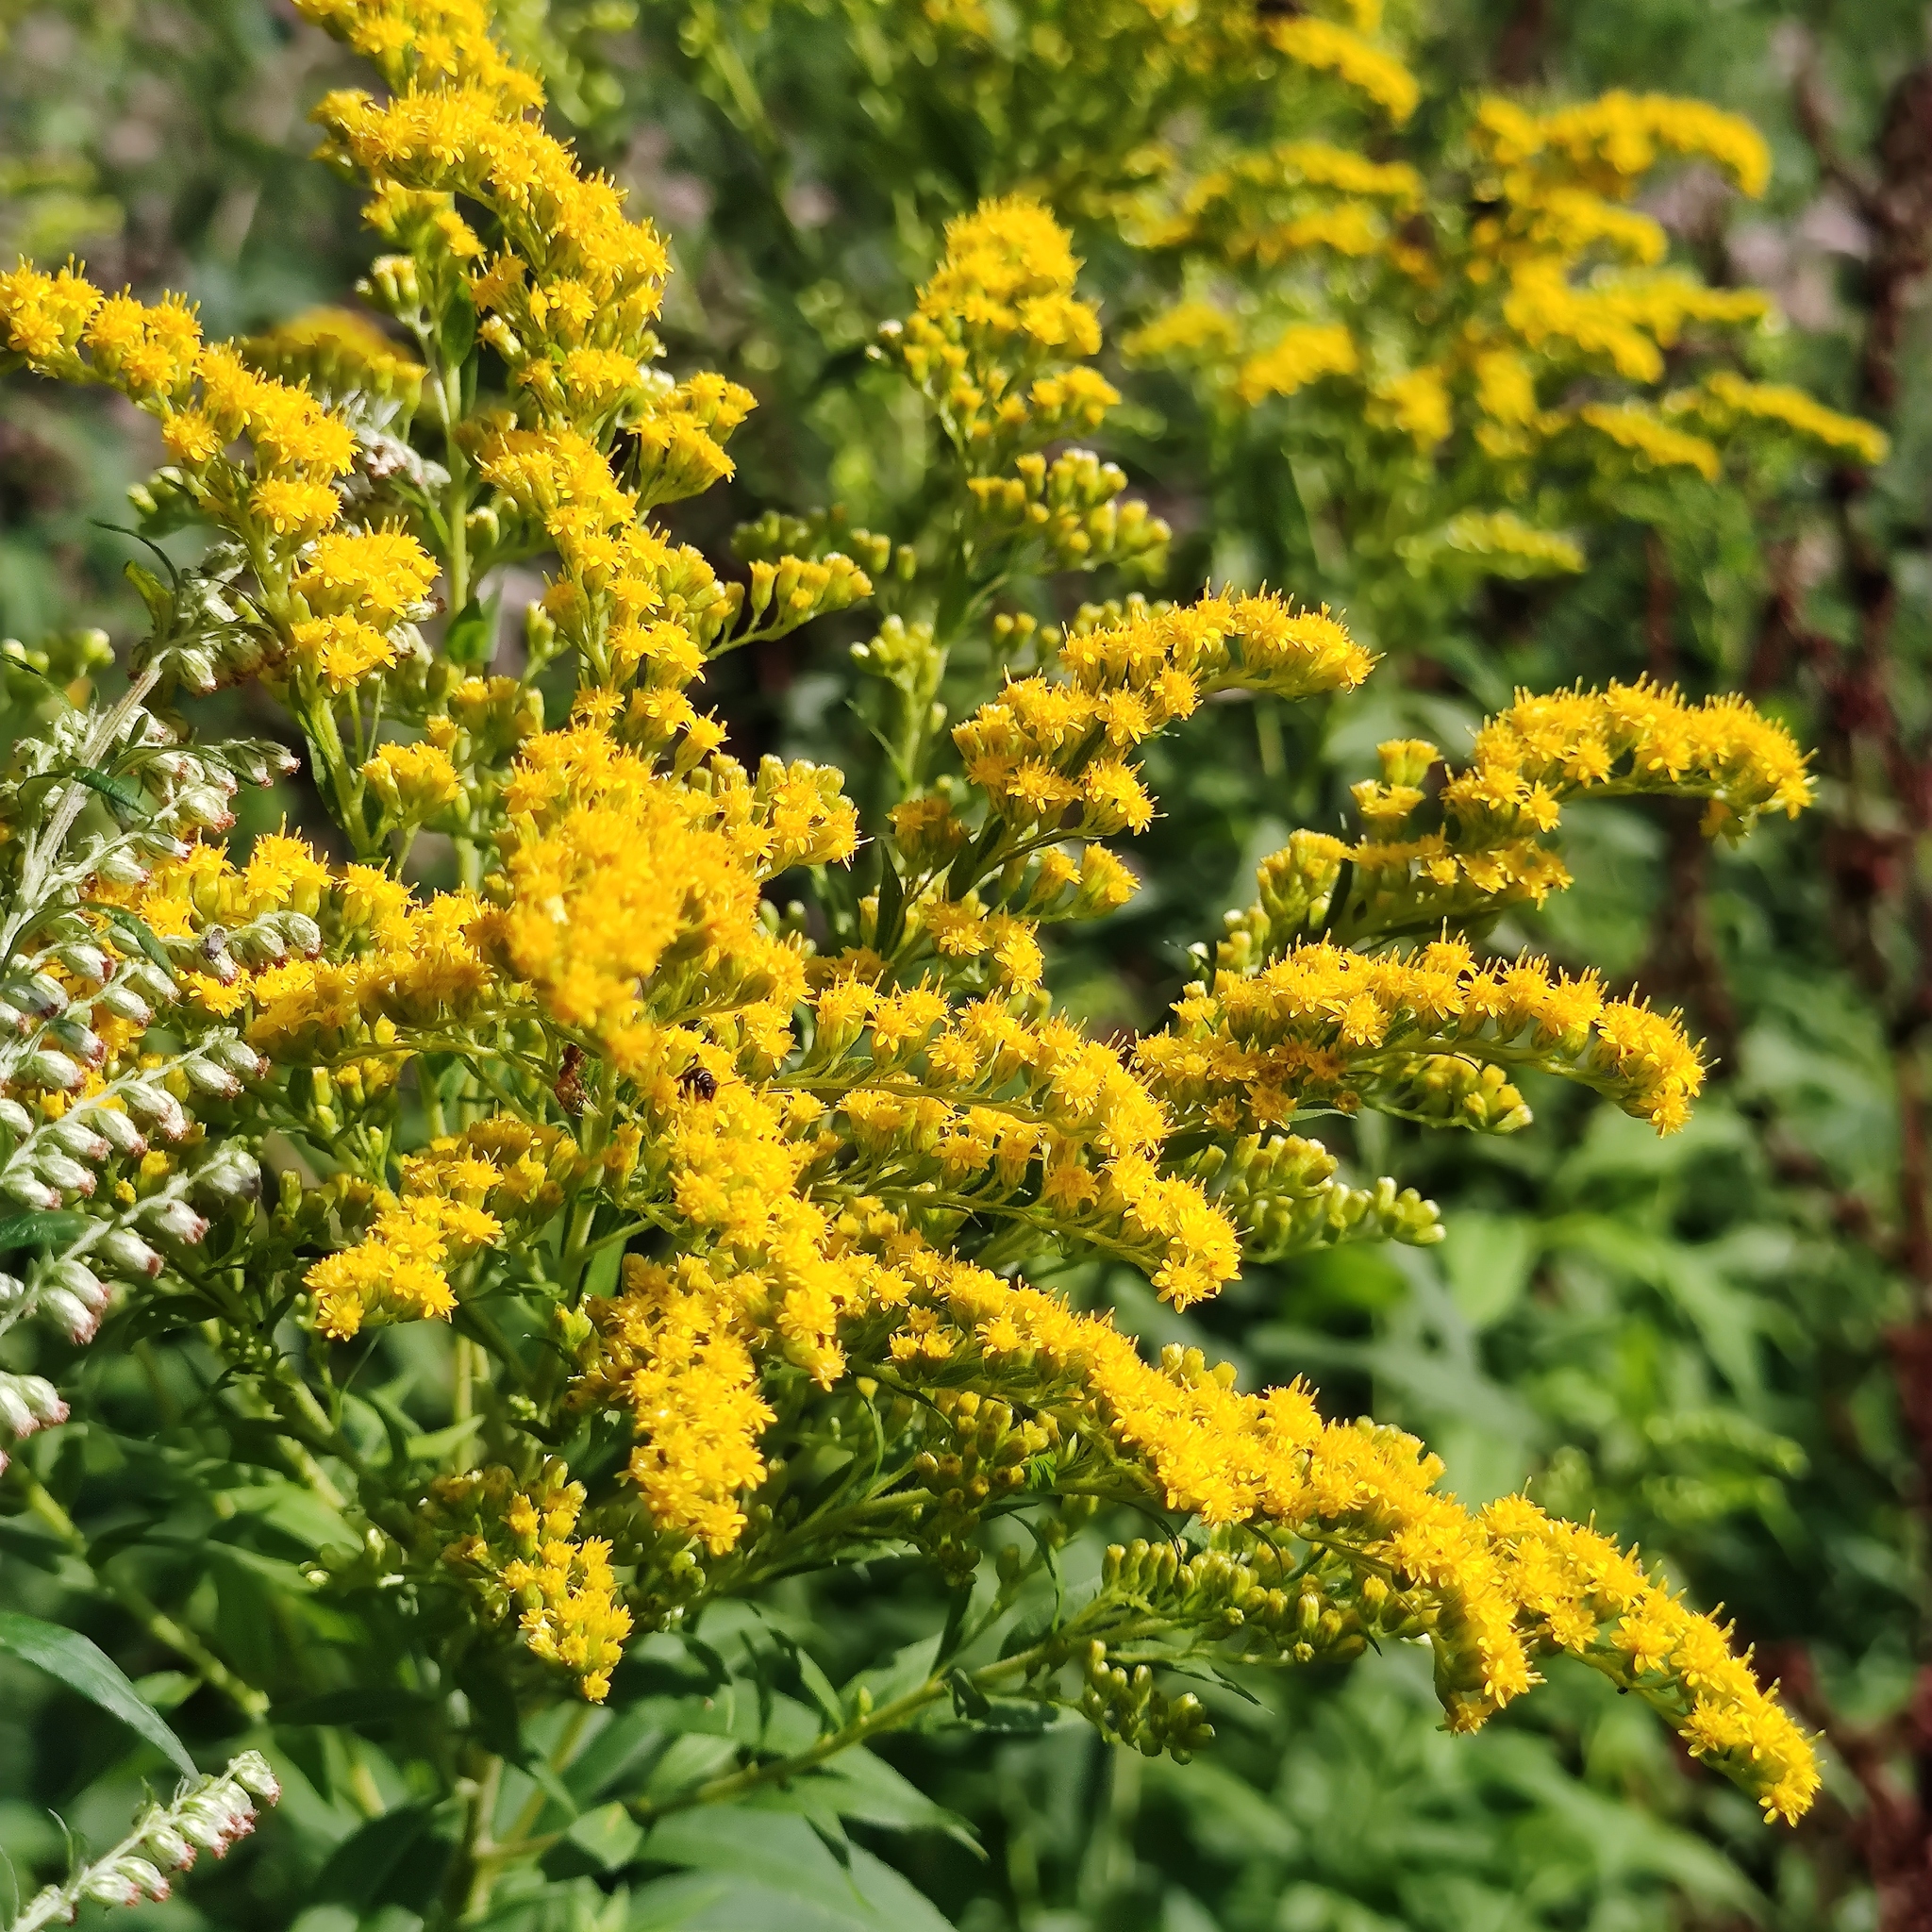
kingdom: Plantae
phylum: Tracheophyta
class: Magnoliopsida
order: Asterales
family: Asteraceae
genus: Solidago
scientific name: Solidago canadensis
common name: Canada goldenrod
